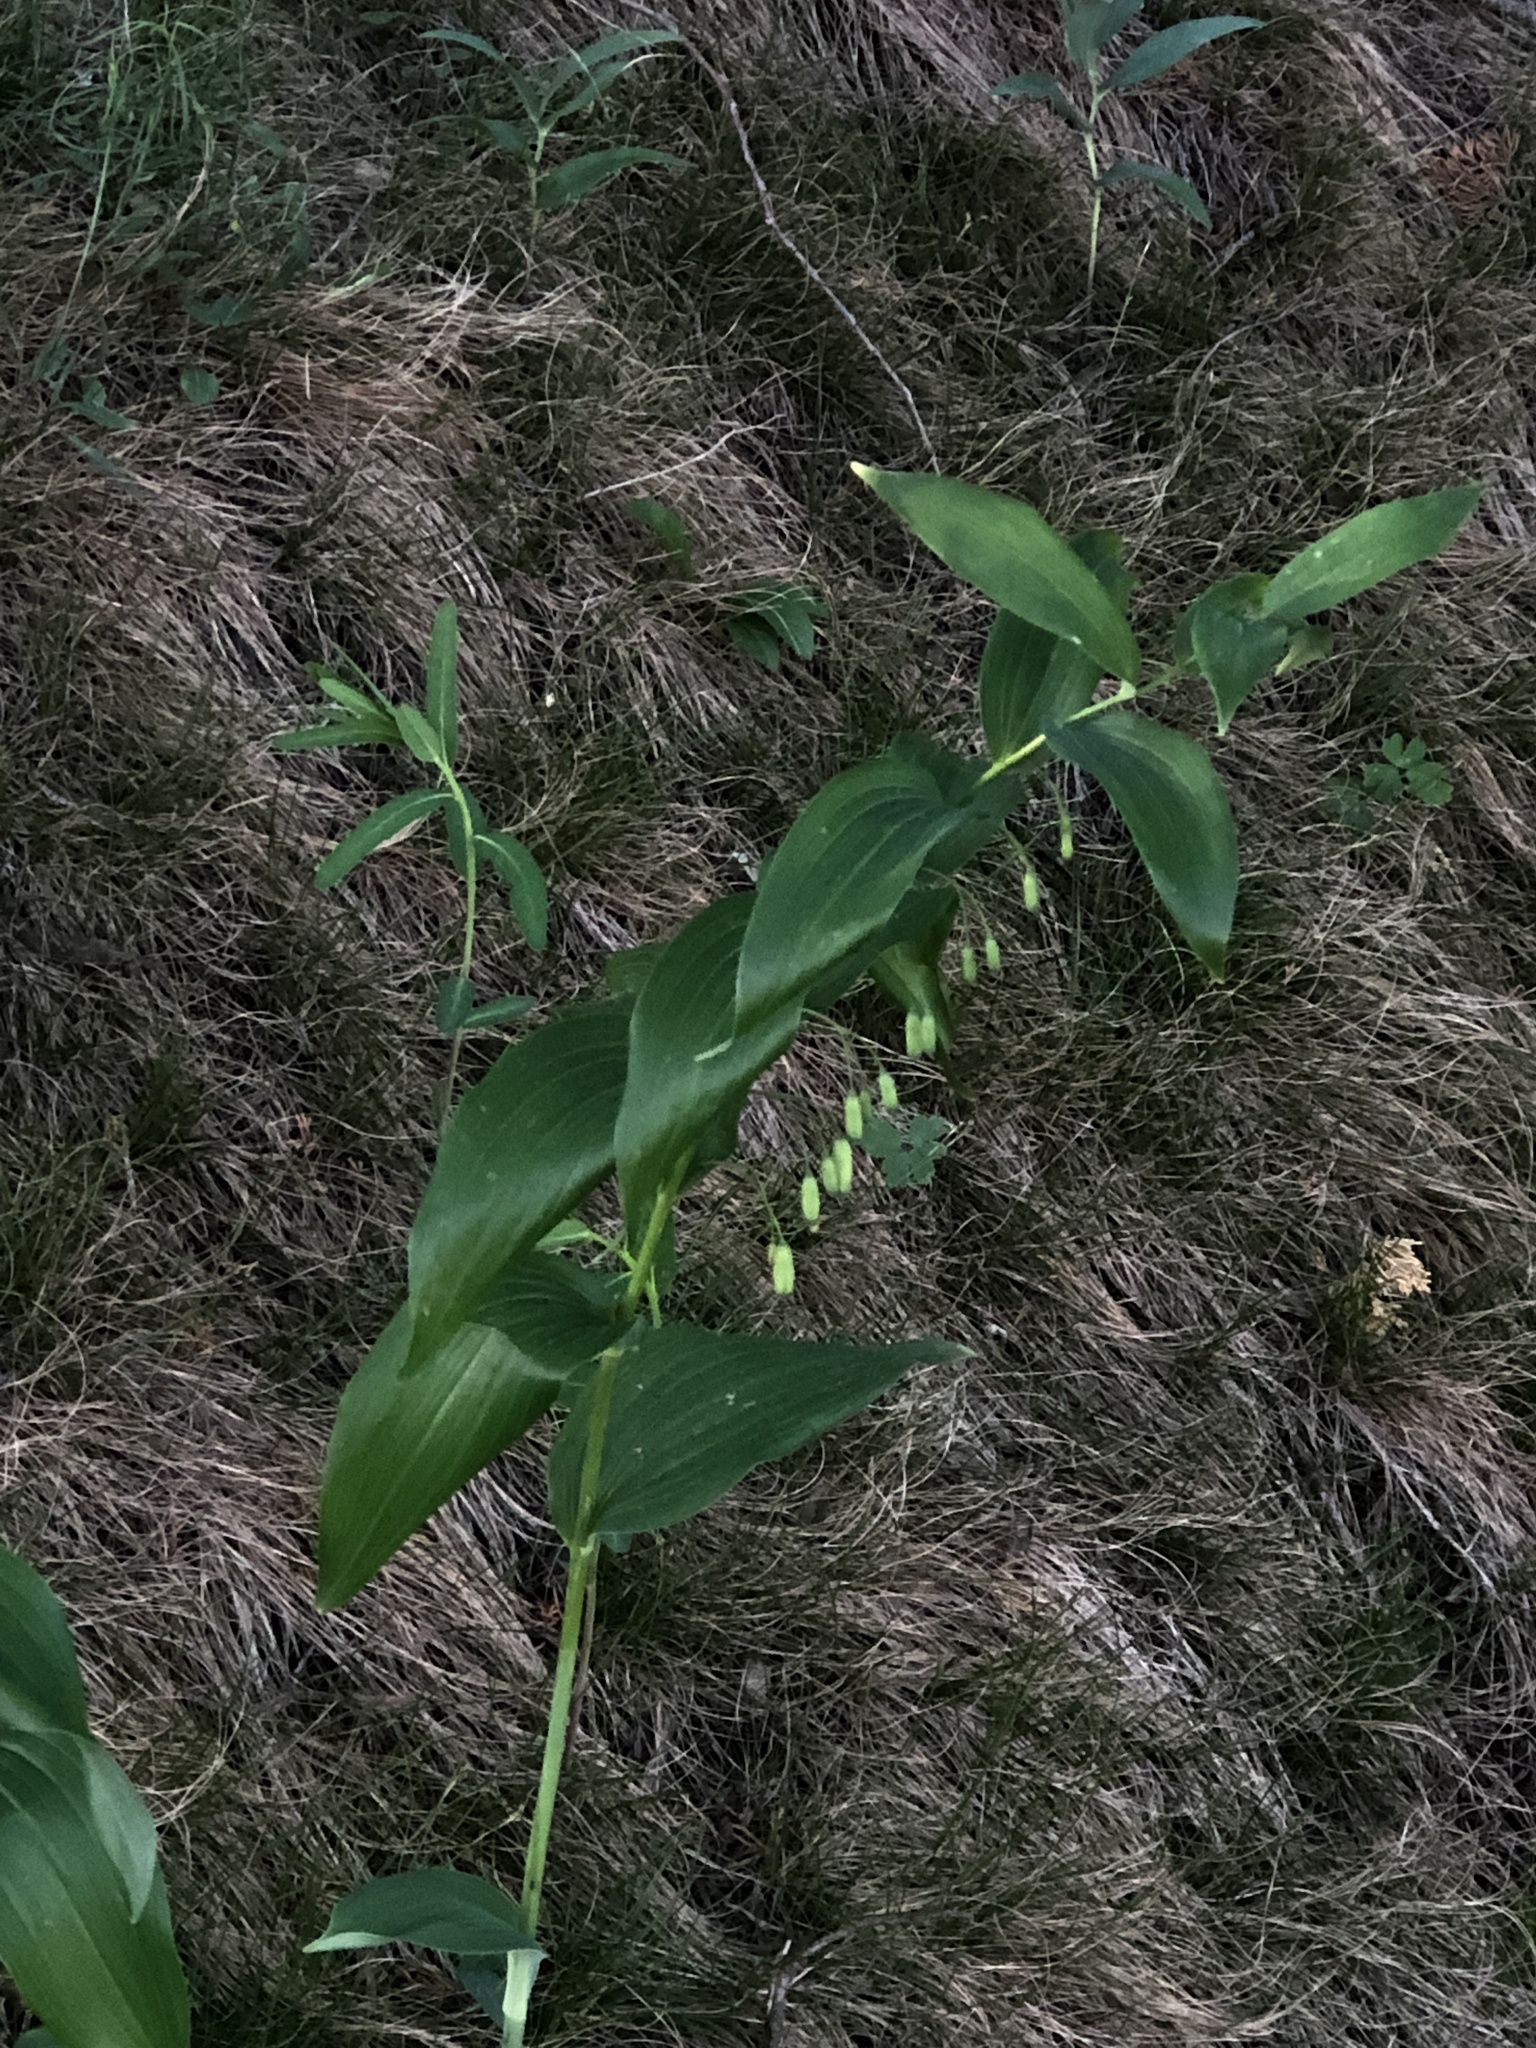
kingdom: Plantae
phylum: Tracheophyta
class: Liliopsida
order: Asparagales
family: Asparagaceae
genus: Polygonatum
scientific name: Polygonatum biflorum
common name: American solomon's-seal
